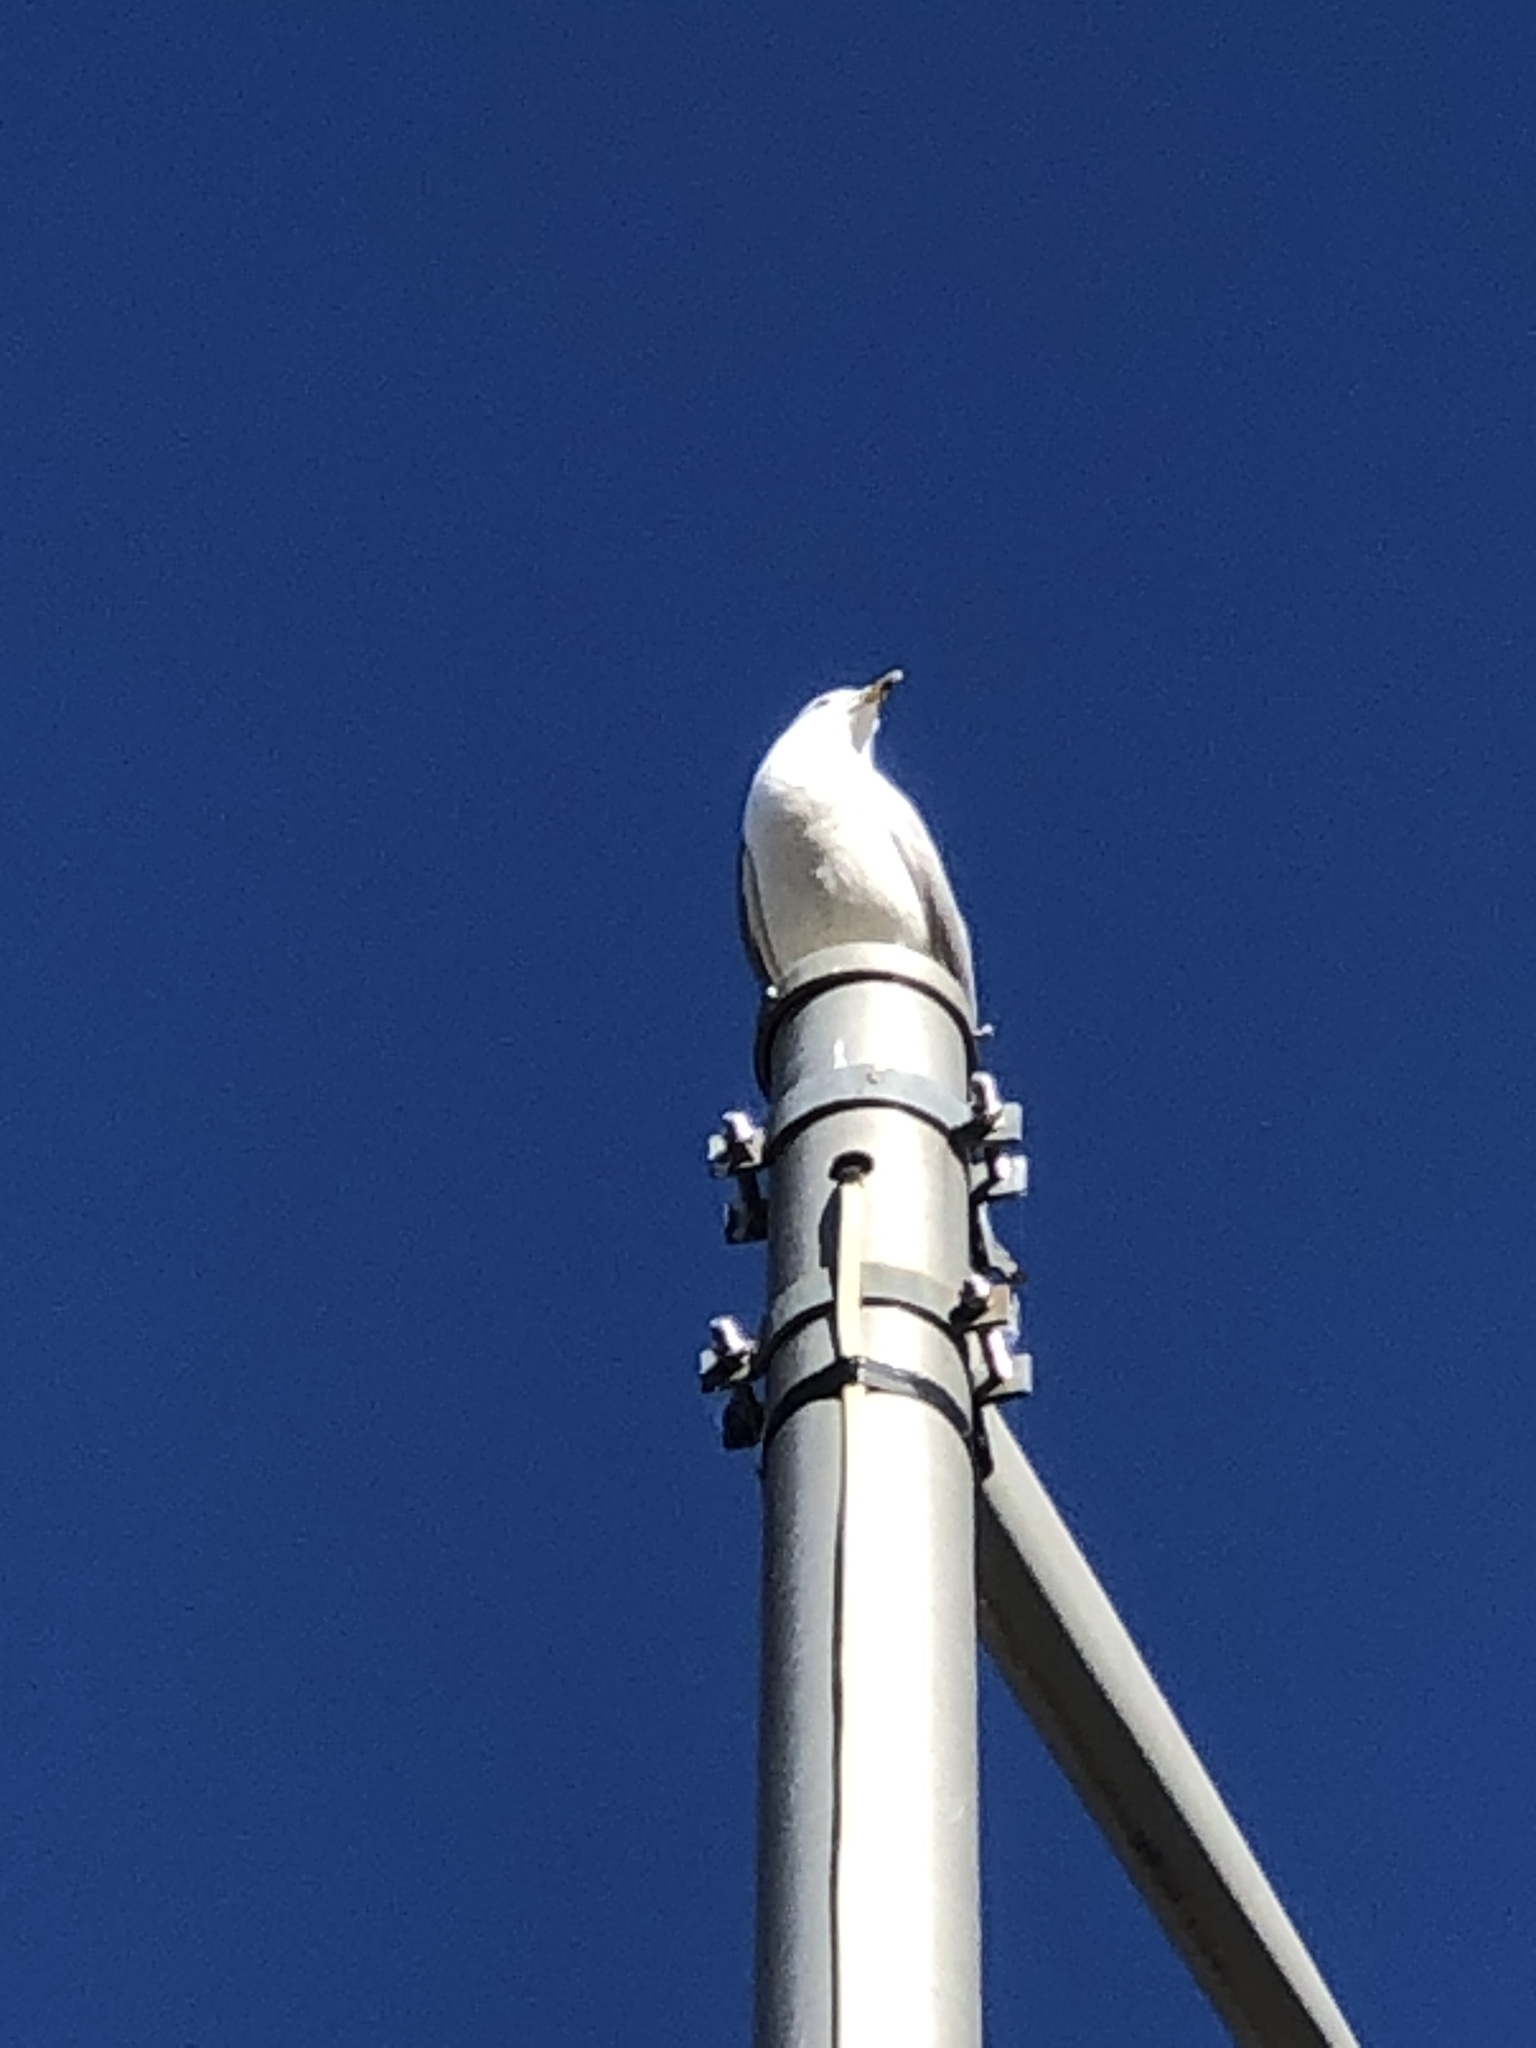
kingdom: Animalia
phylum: Chordata
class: Aves
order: Charadriiformes
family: Laridae
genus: Larus
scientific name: Larus delawarensis
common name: Ring-billed gull
